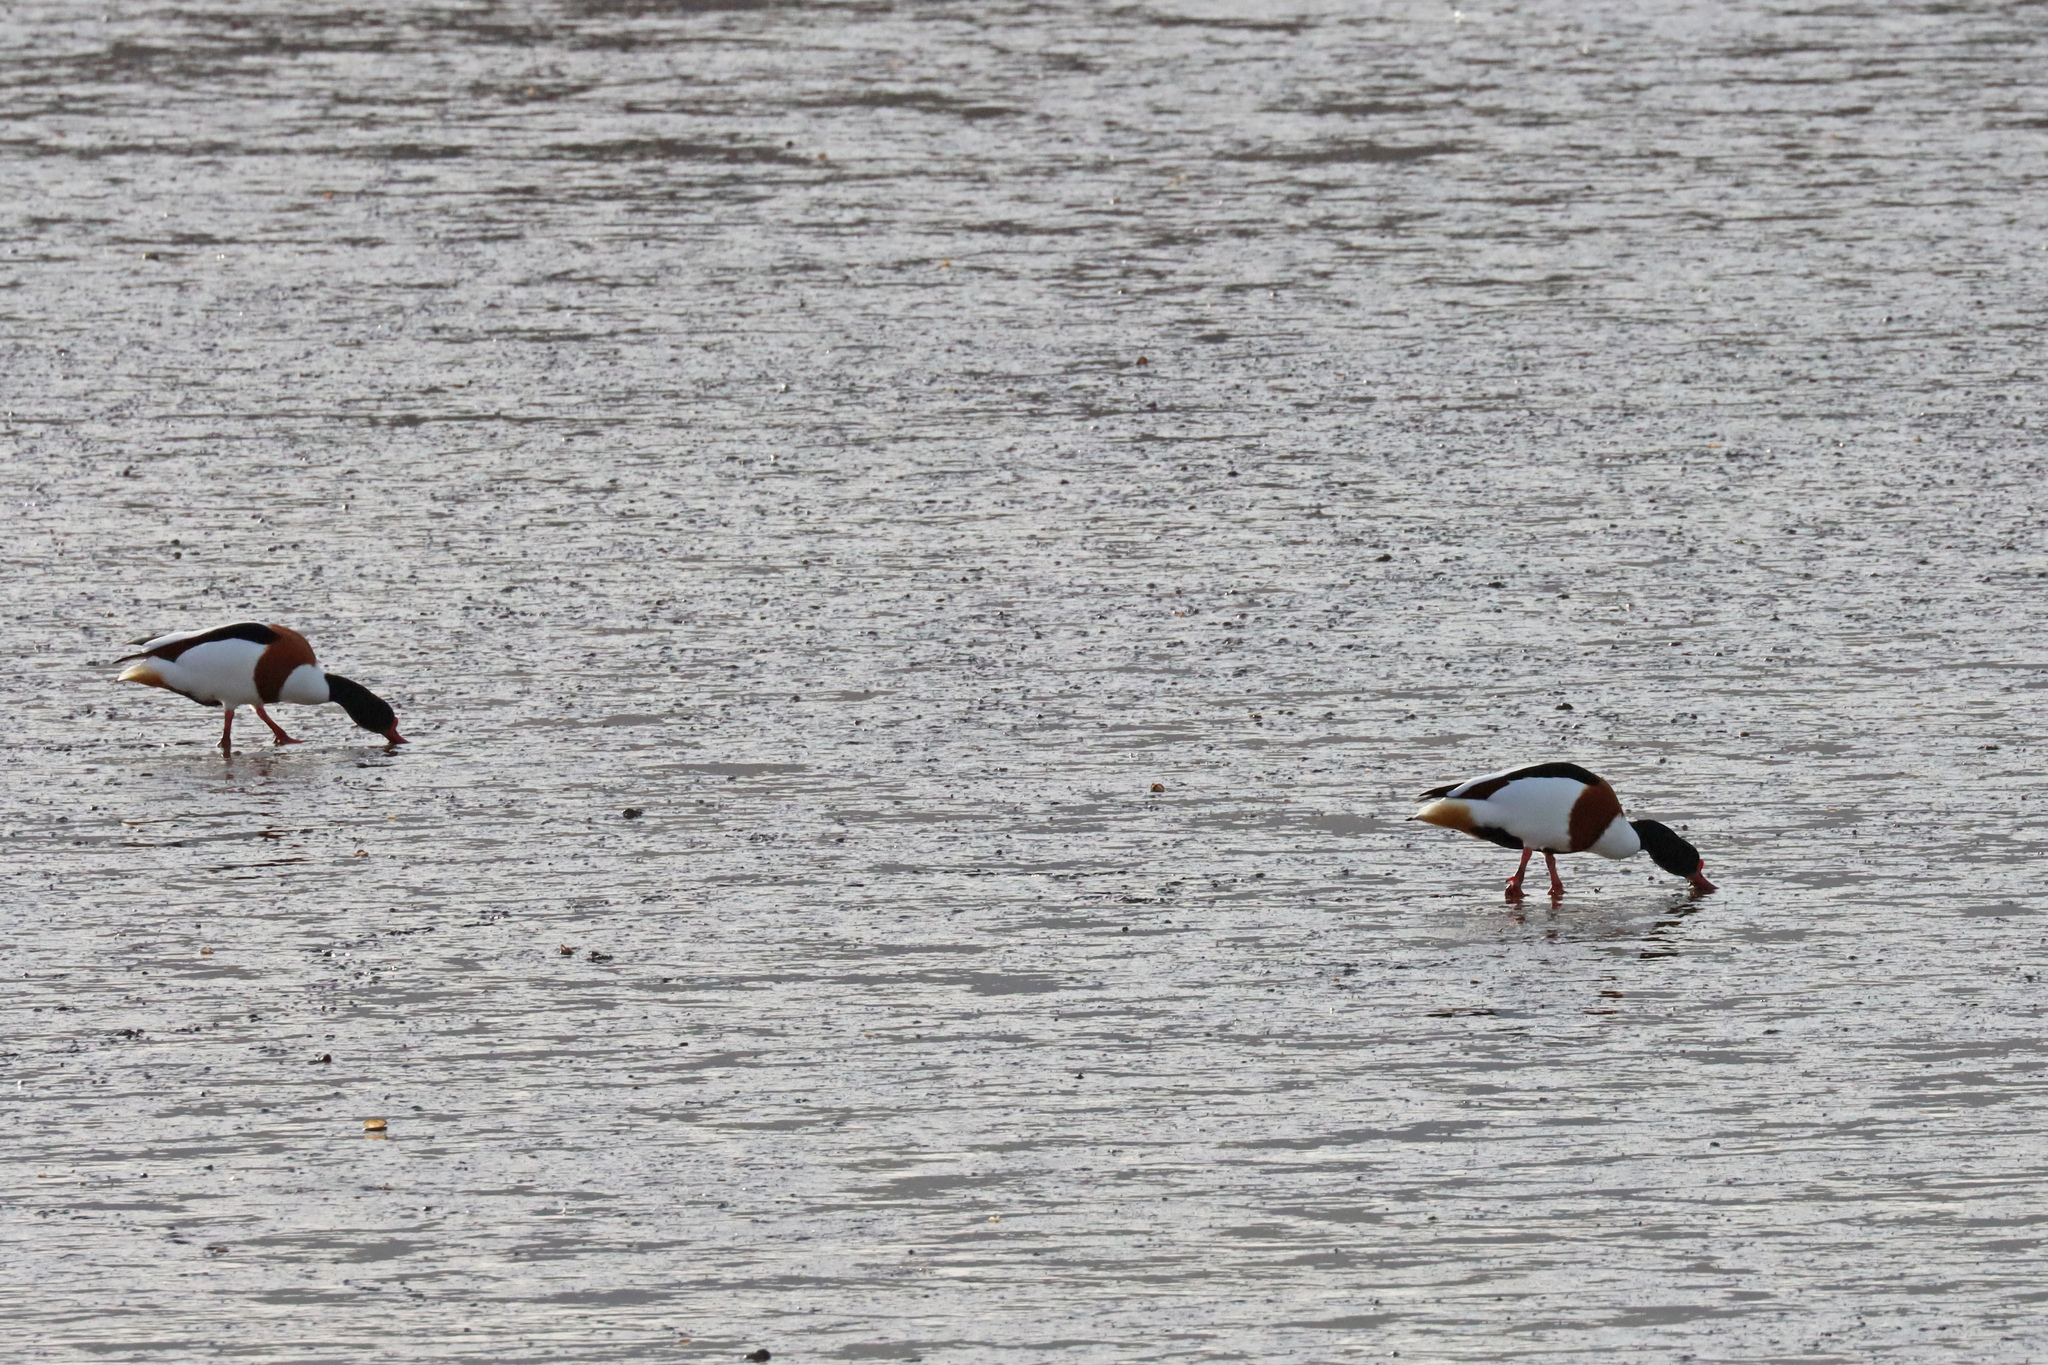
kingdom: Animalia
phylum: Chordata
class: Aves
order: Anseriformes
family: Anatidae
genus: Tadorna
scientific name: Tadorna tadorna
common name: Common shelduck
